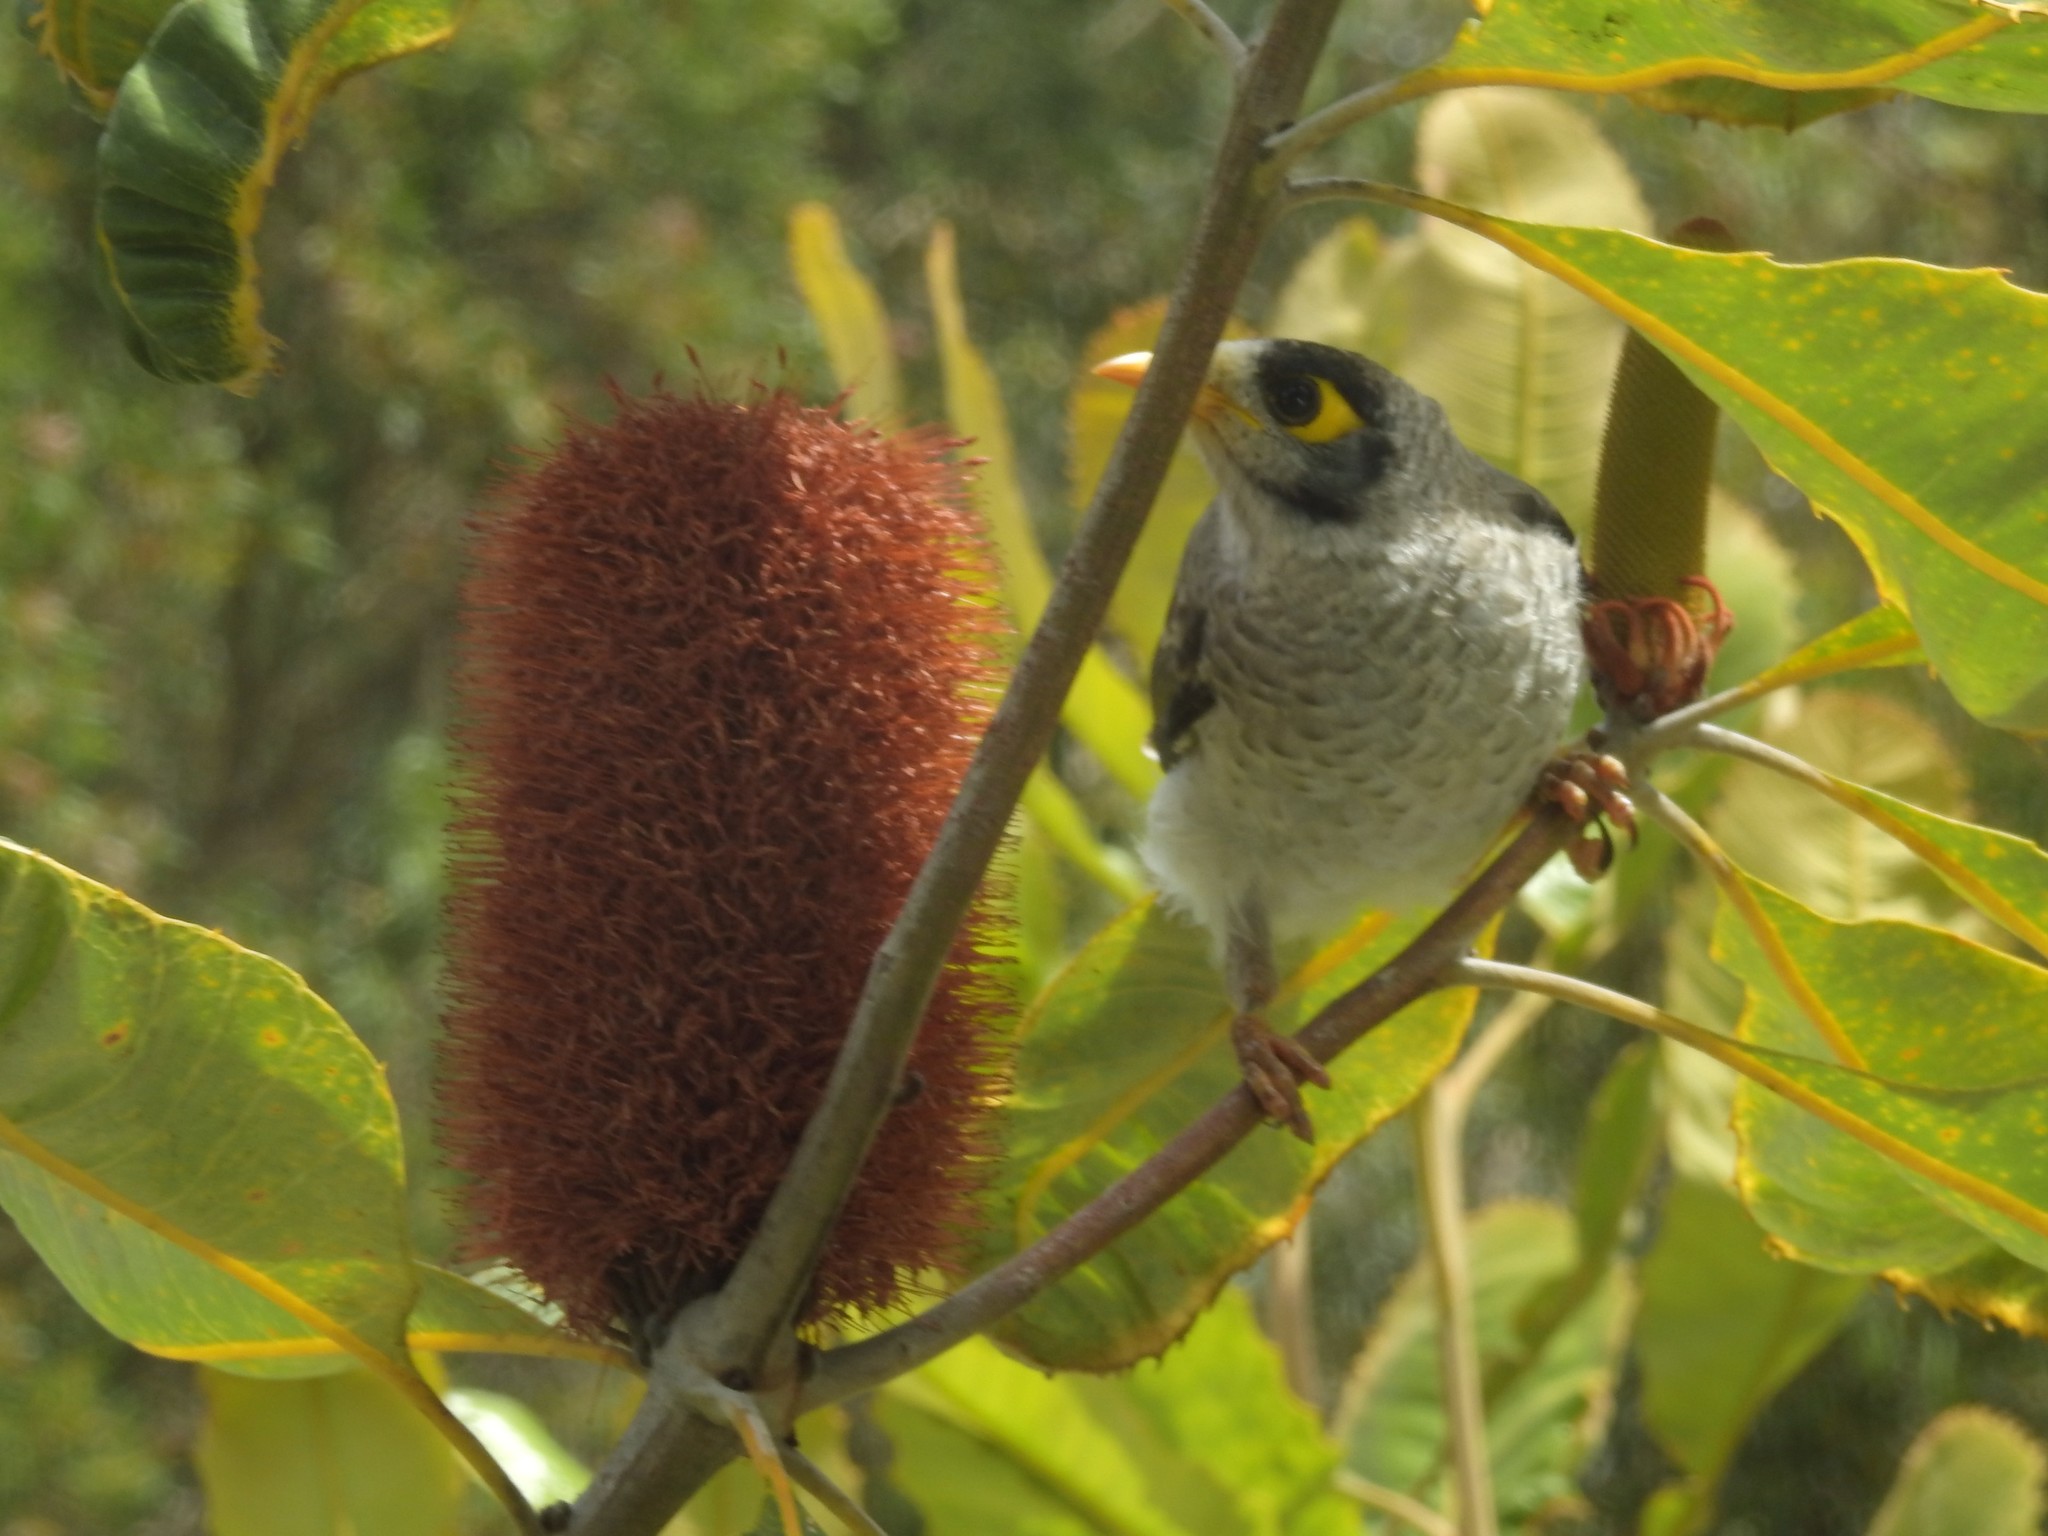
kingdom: Animalia
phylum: Chordata
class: Aves
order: Passeriformes
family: Meliphagidae
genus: Manorina
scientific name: Manorina melanocephala
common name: Noisy miner
